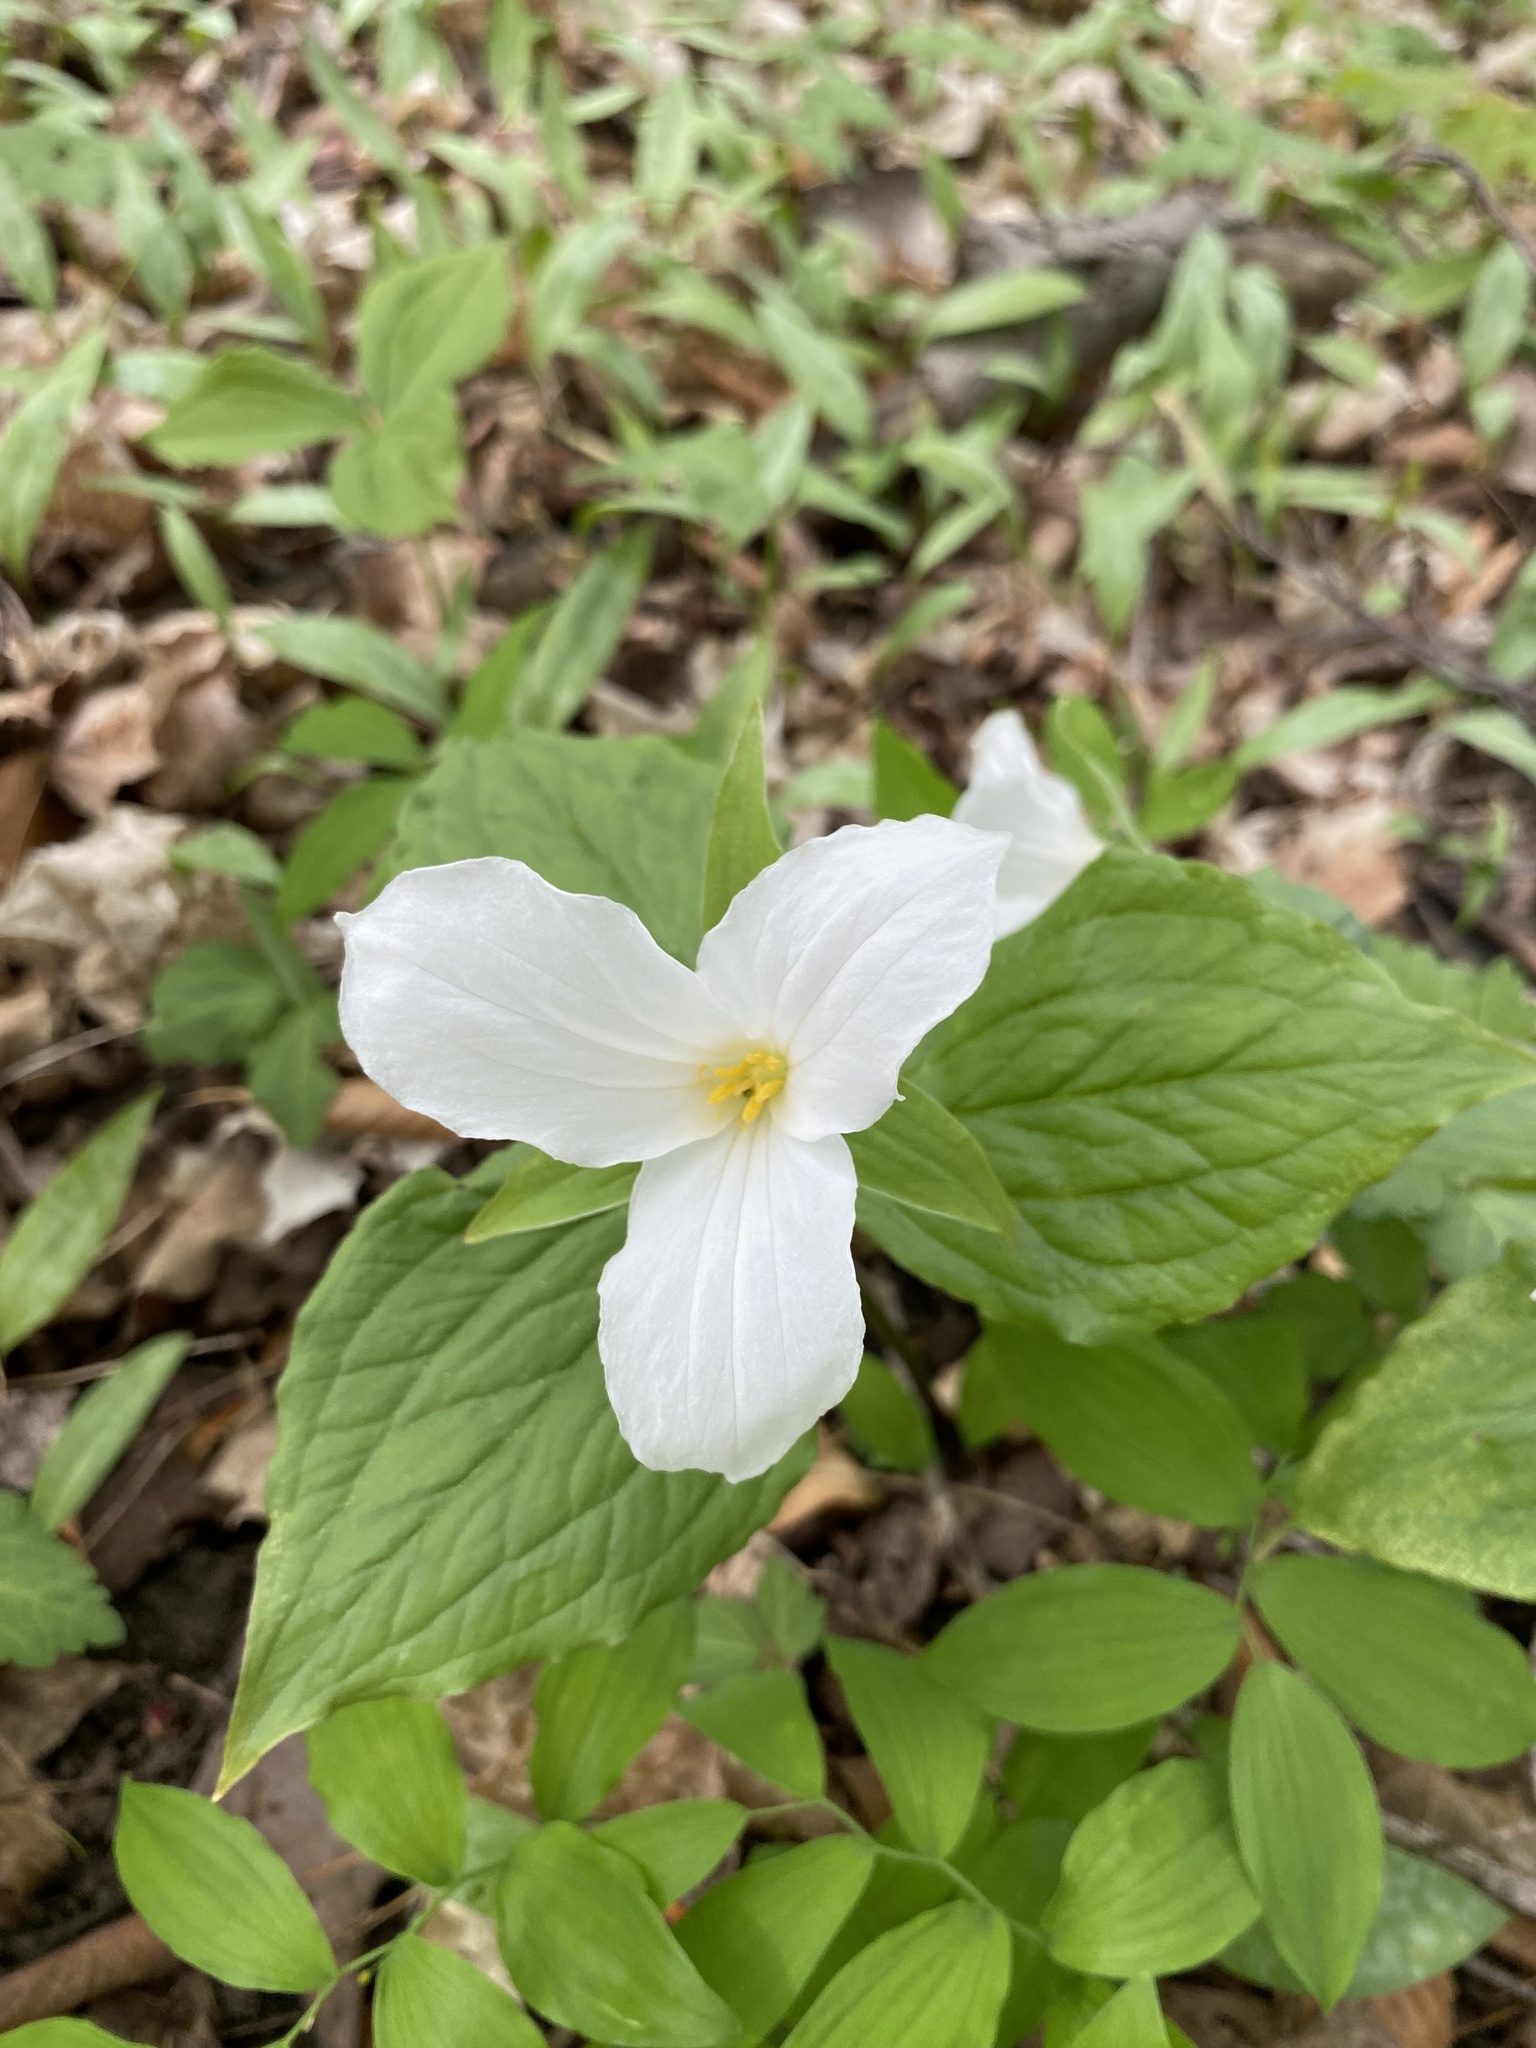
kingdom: Plantae
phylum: Tracheophyta
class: Liliopsida
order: Liliales
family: Melanthiaceae
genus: Trillium
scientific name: Trillium grandiflorum
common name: Great white trillium
